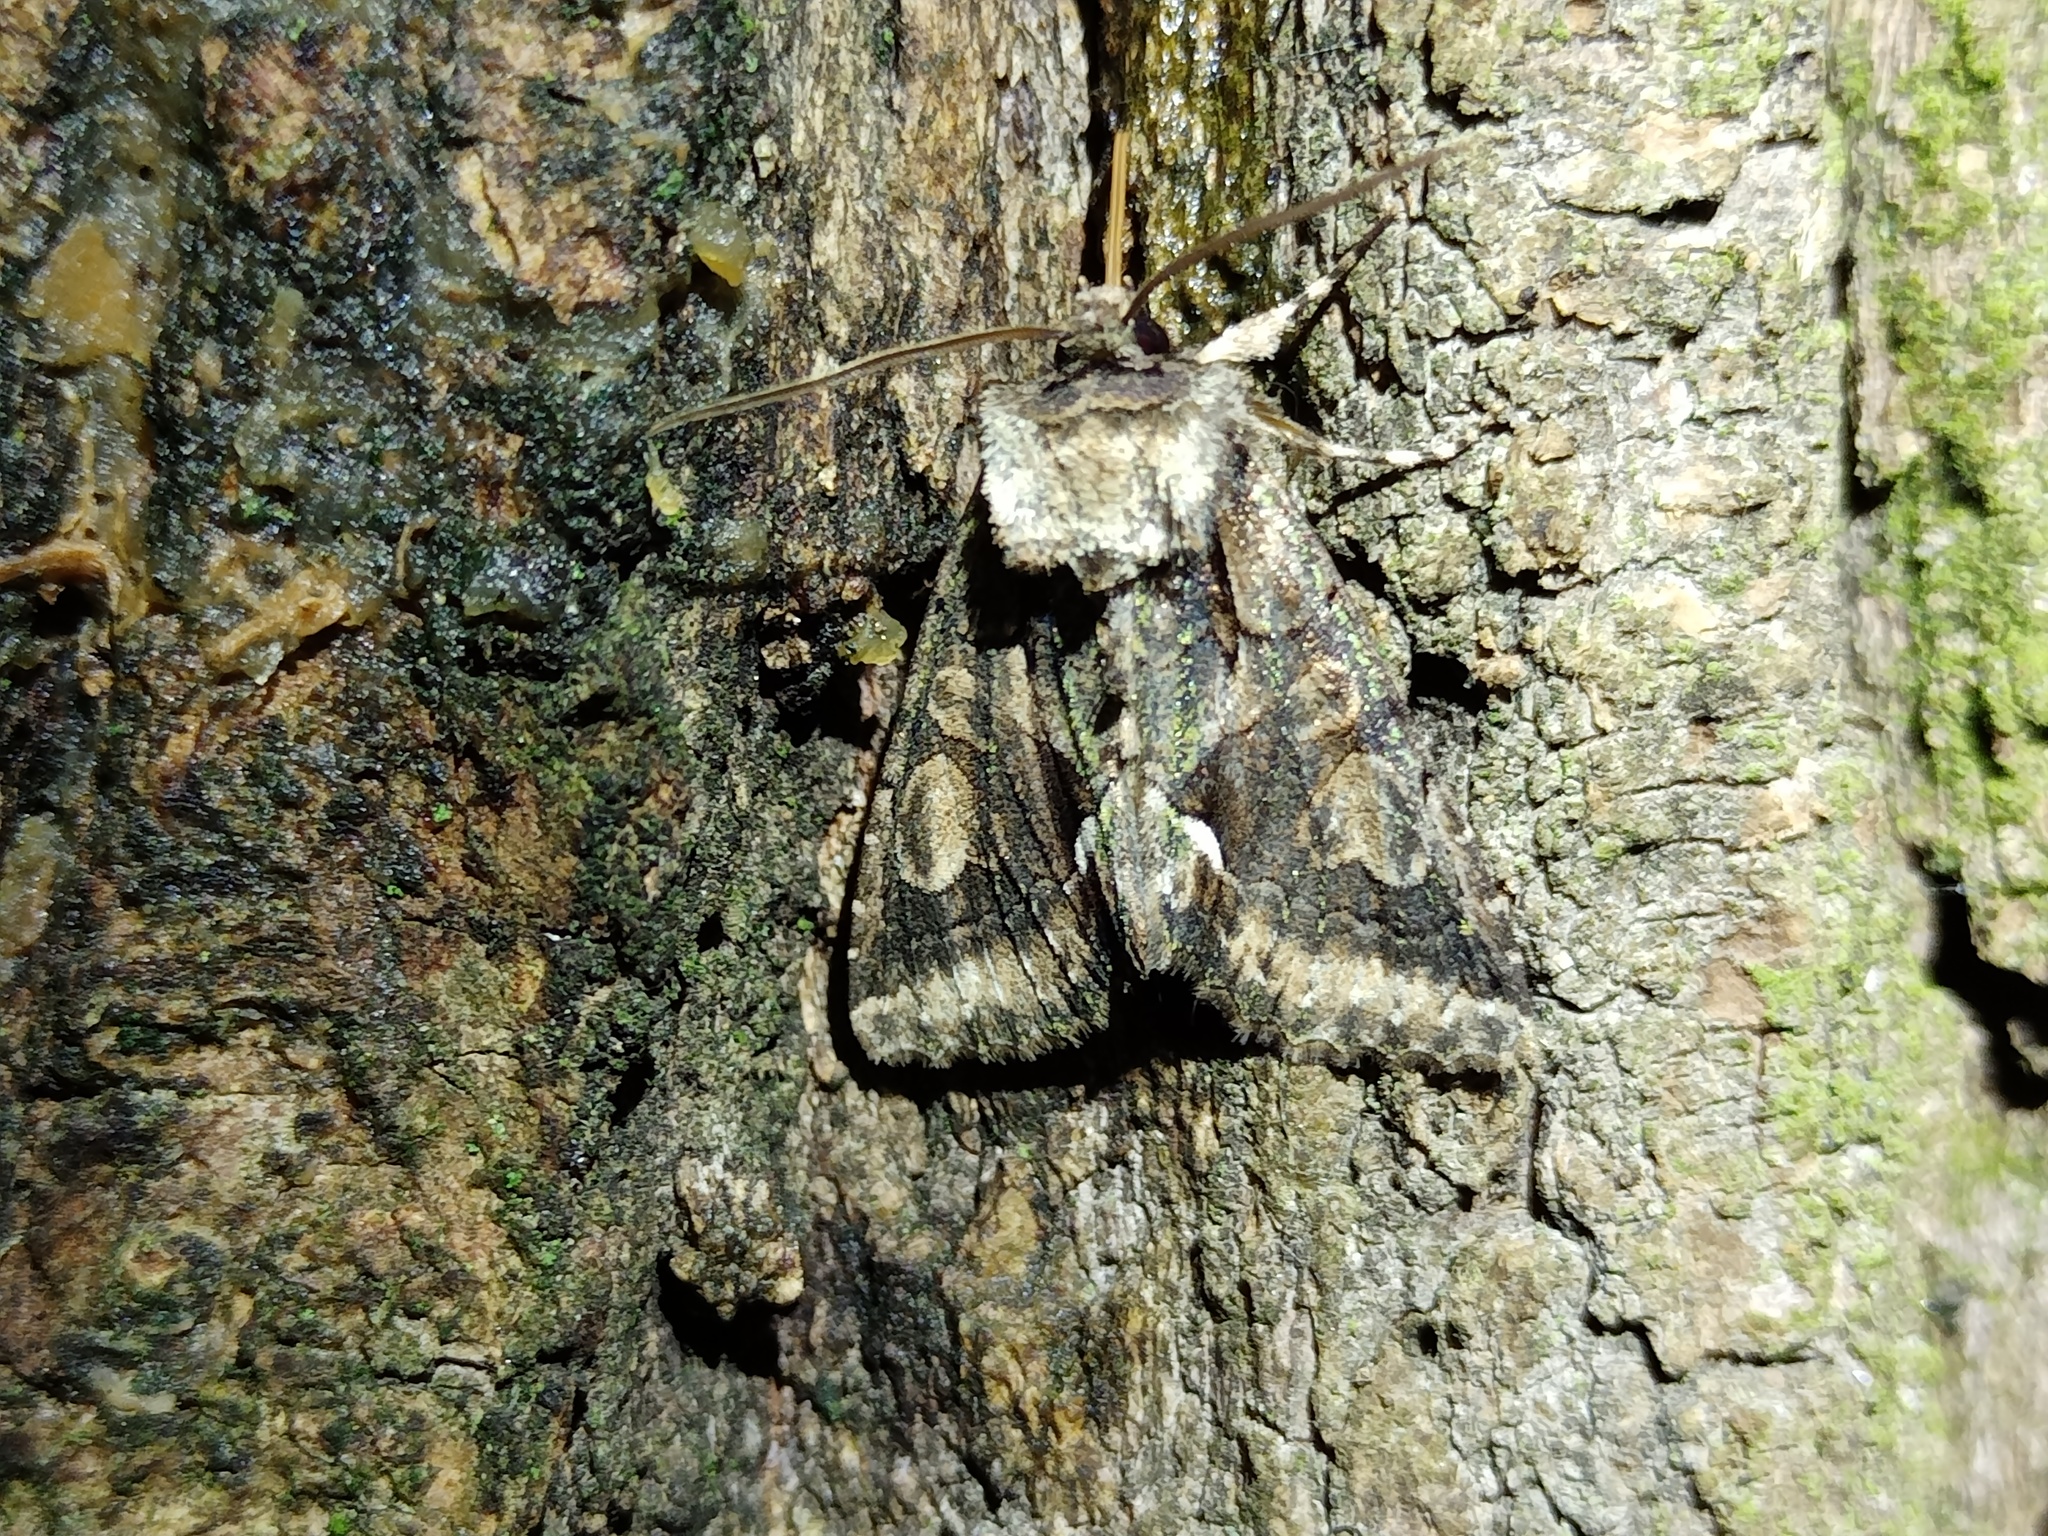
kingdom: Animalia
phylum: Arthropoda
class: Insecta
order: Lepidoptera
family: Noctuidae
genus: Allophyes
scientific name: Allophyes oxyacanthae
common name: Green-brindled crescent
